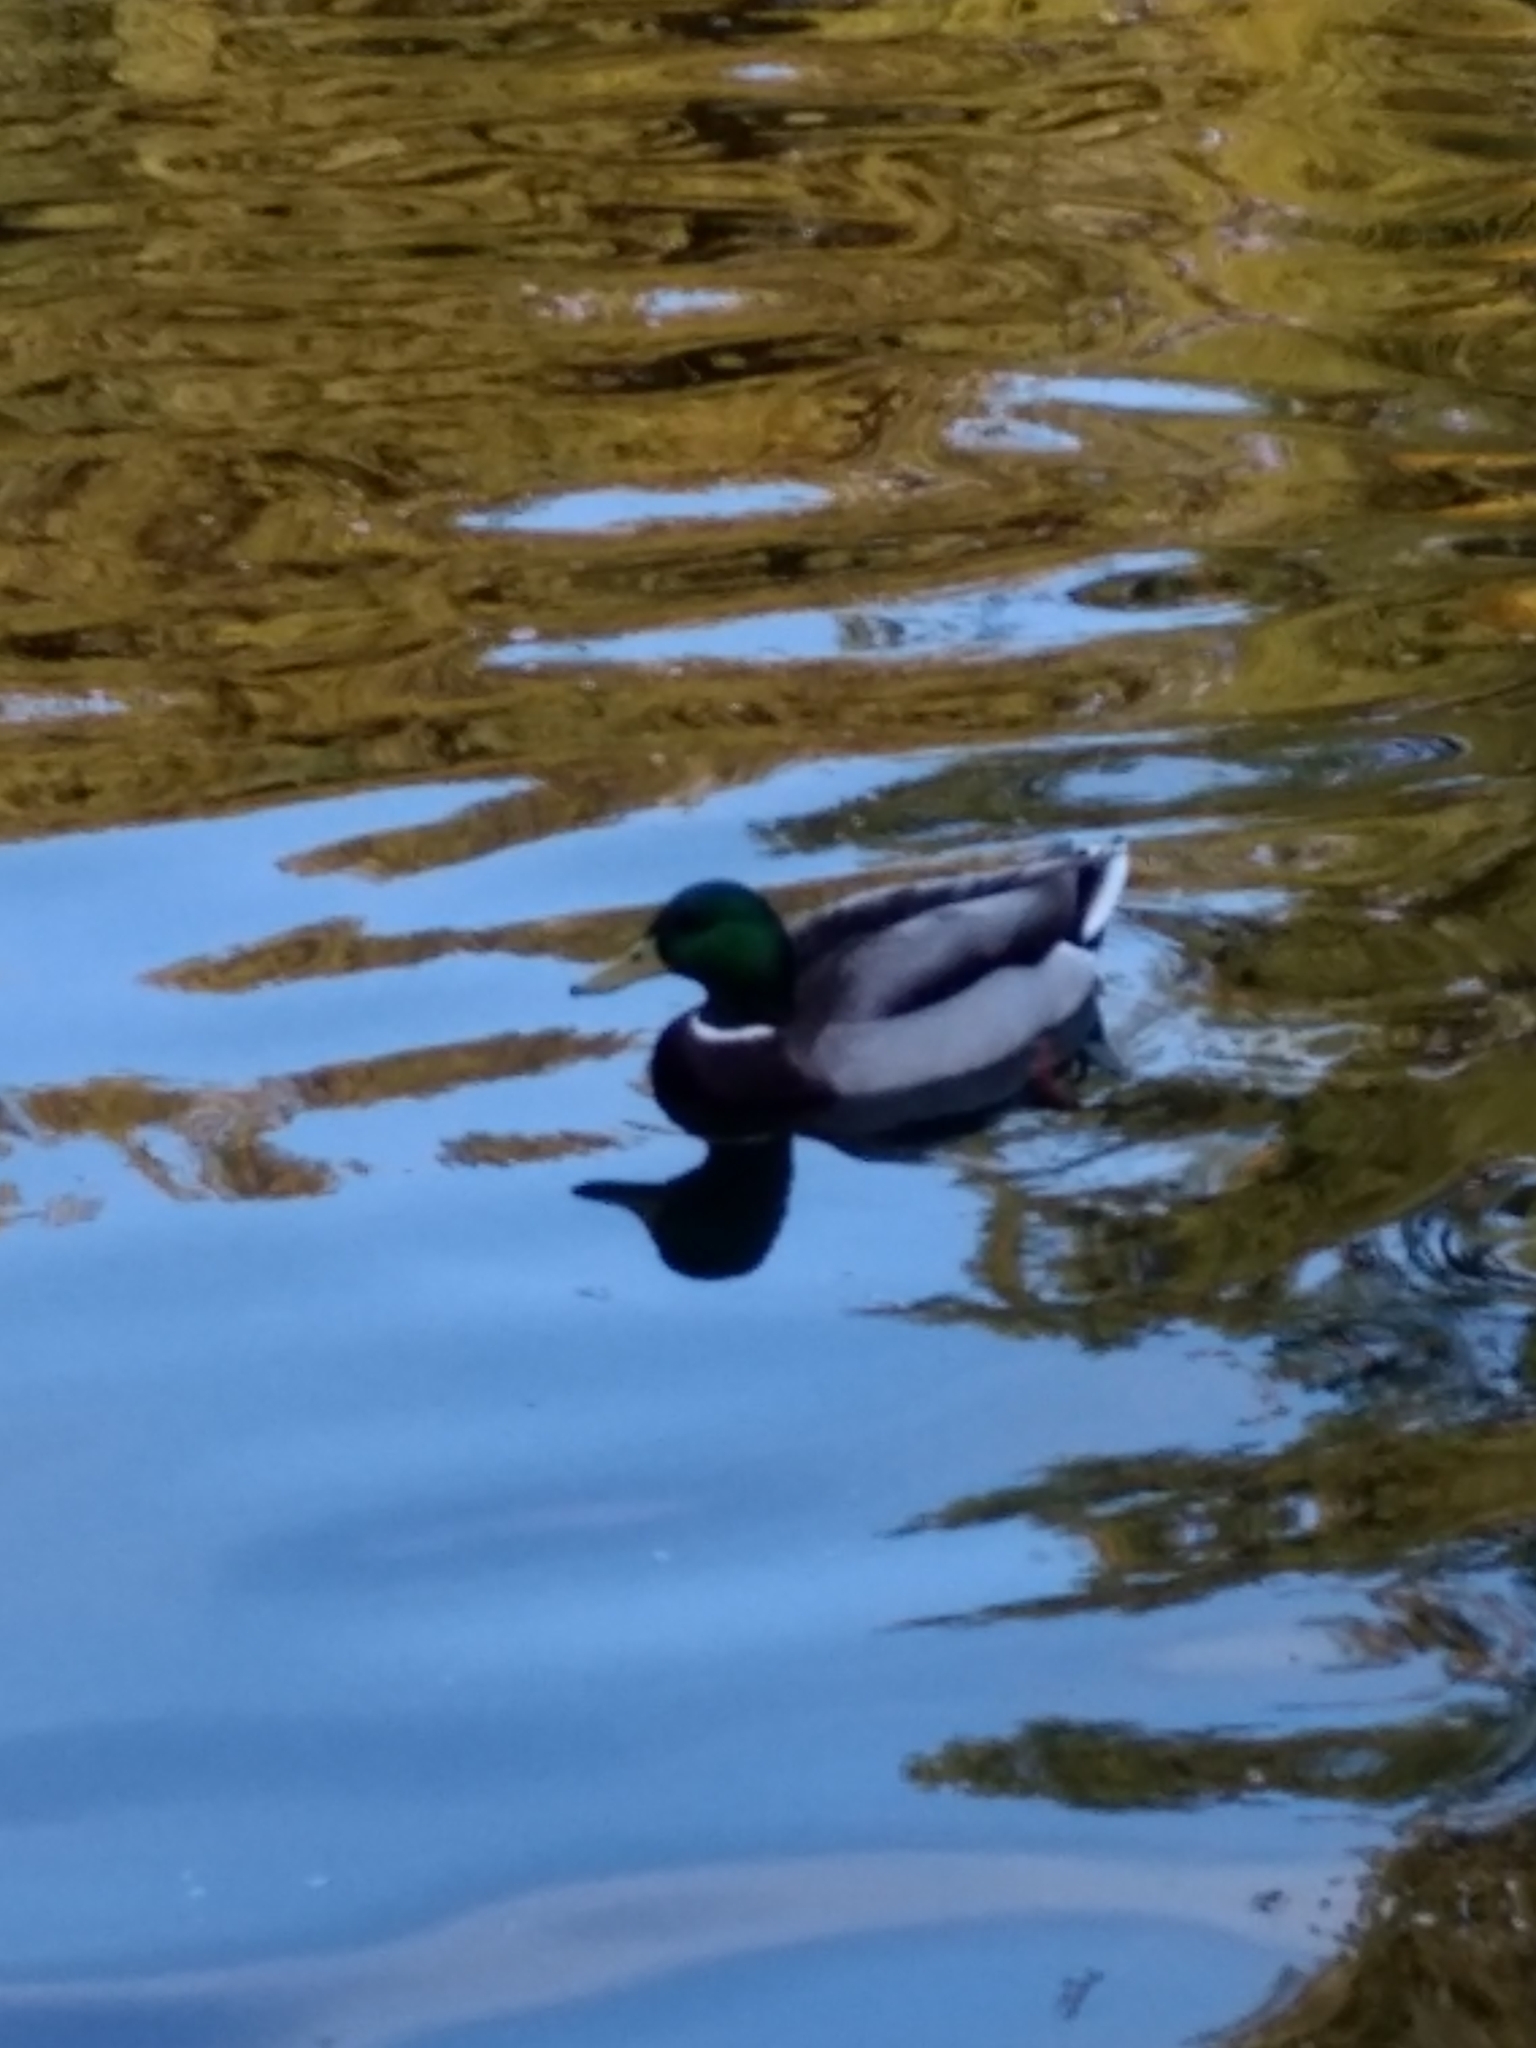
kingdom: Animalia
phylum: Chordata
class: Aves
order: Anseriformes
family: Anatidae
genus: Anas
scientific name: Anas platyrhynchos
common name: Mallard
